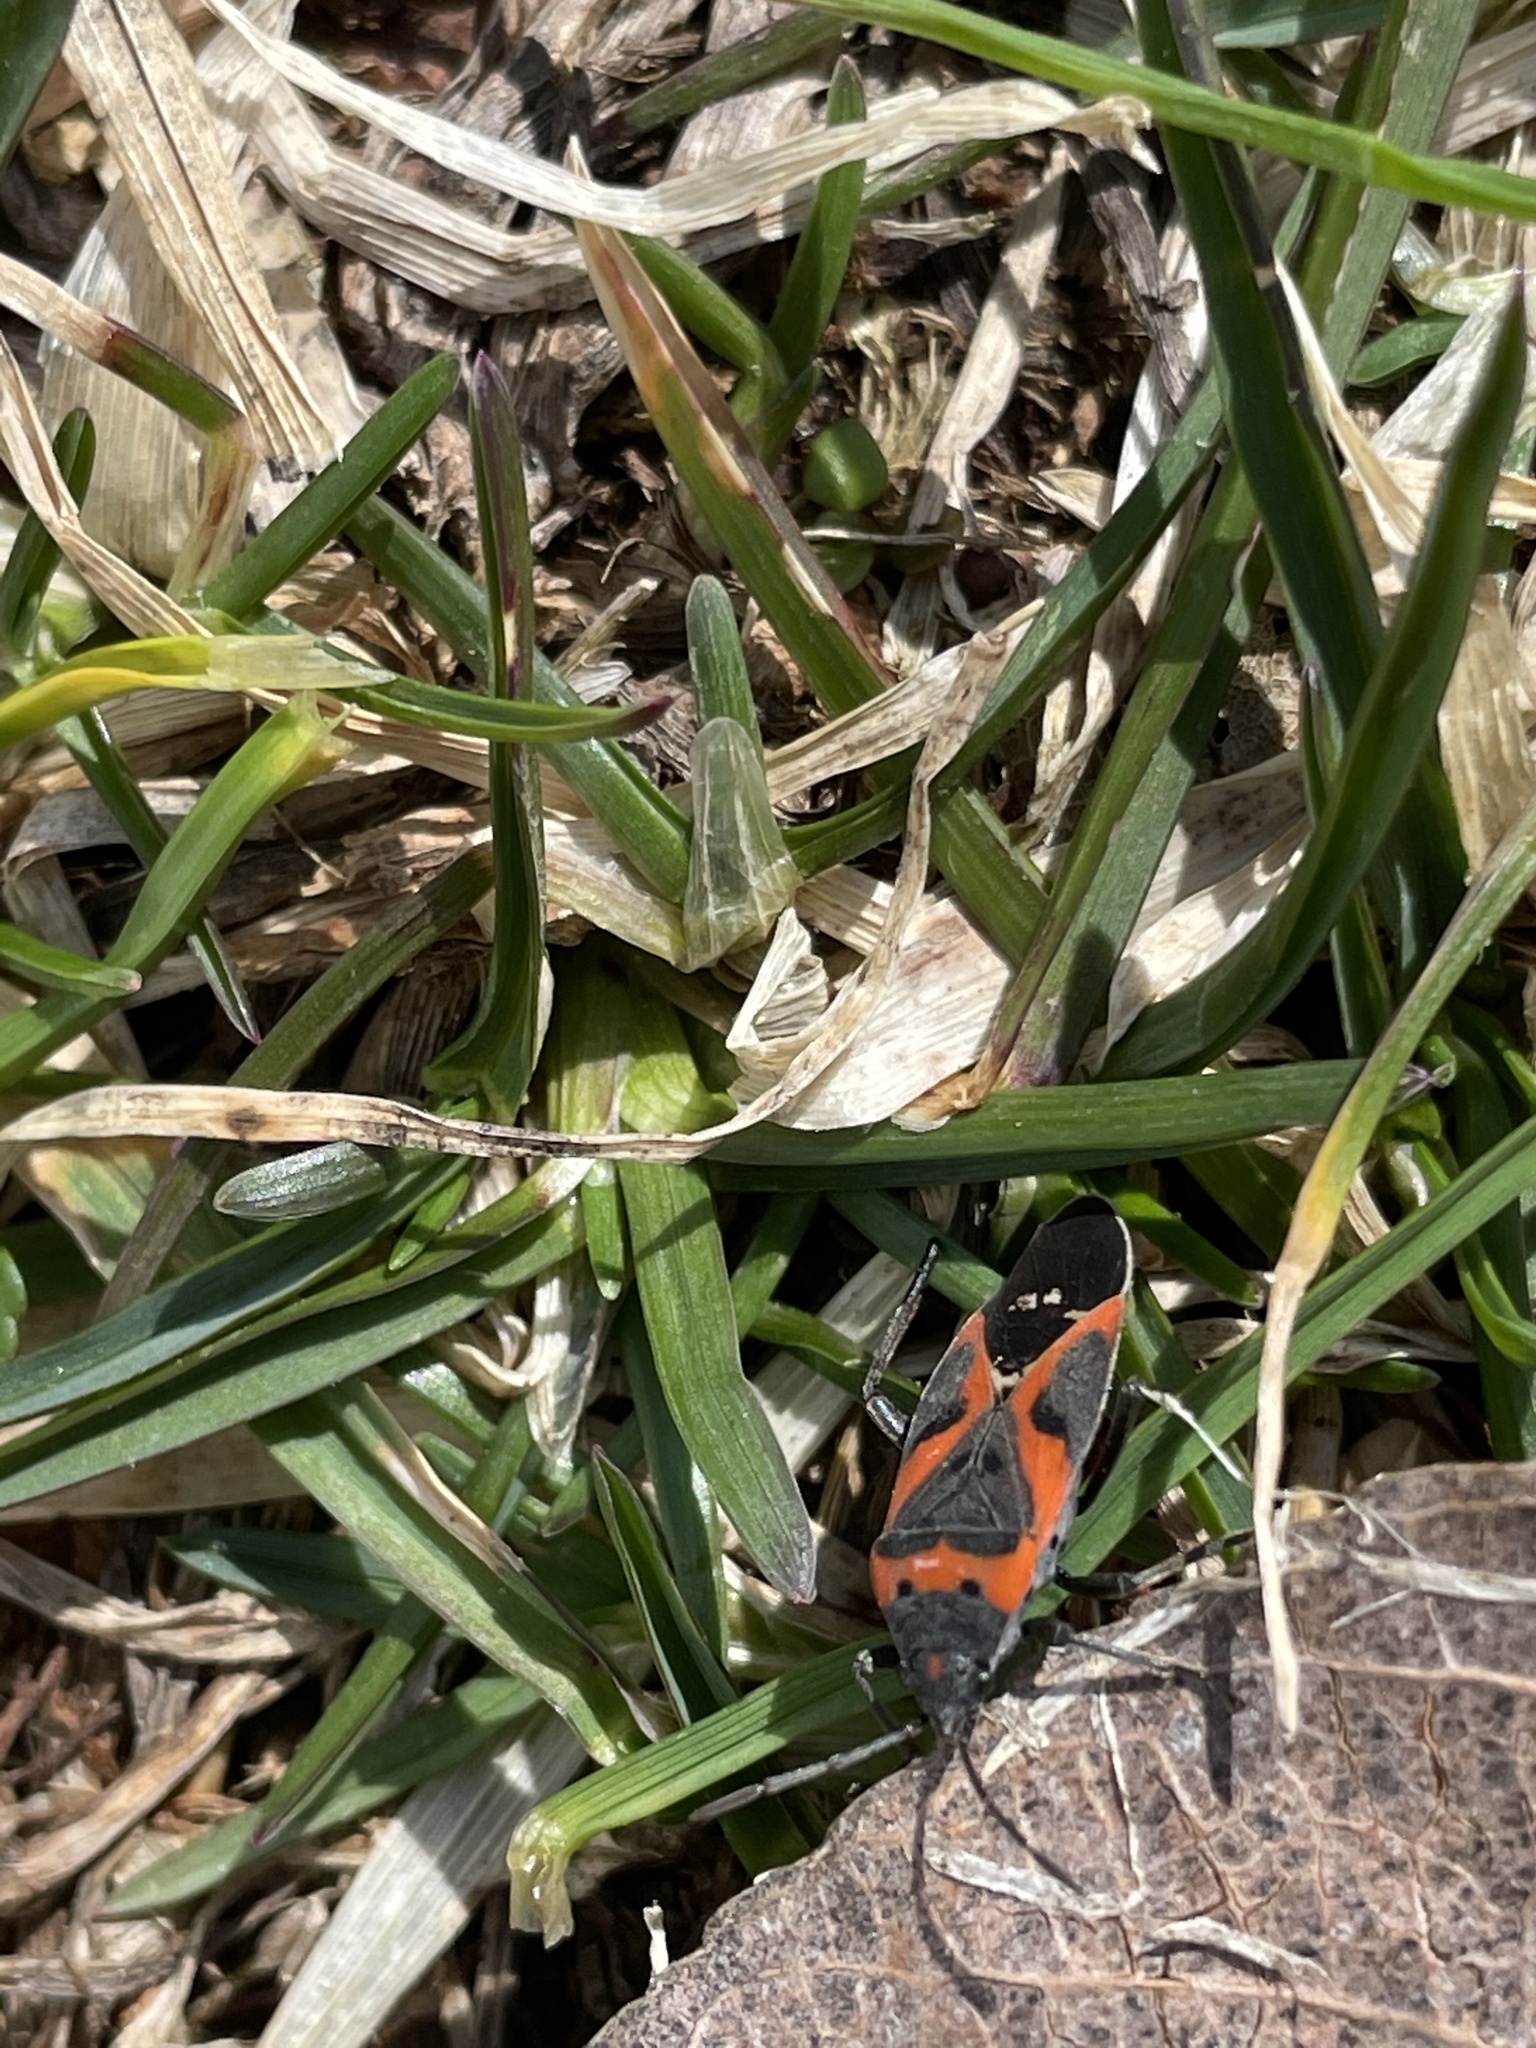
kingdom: Animalia
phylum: Arthropoda
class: Insecta
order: Hemiptera
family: Lygaeidae
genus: Lygaeus
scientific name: Lygaeus kalmii
